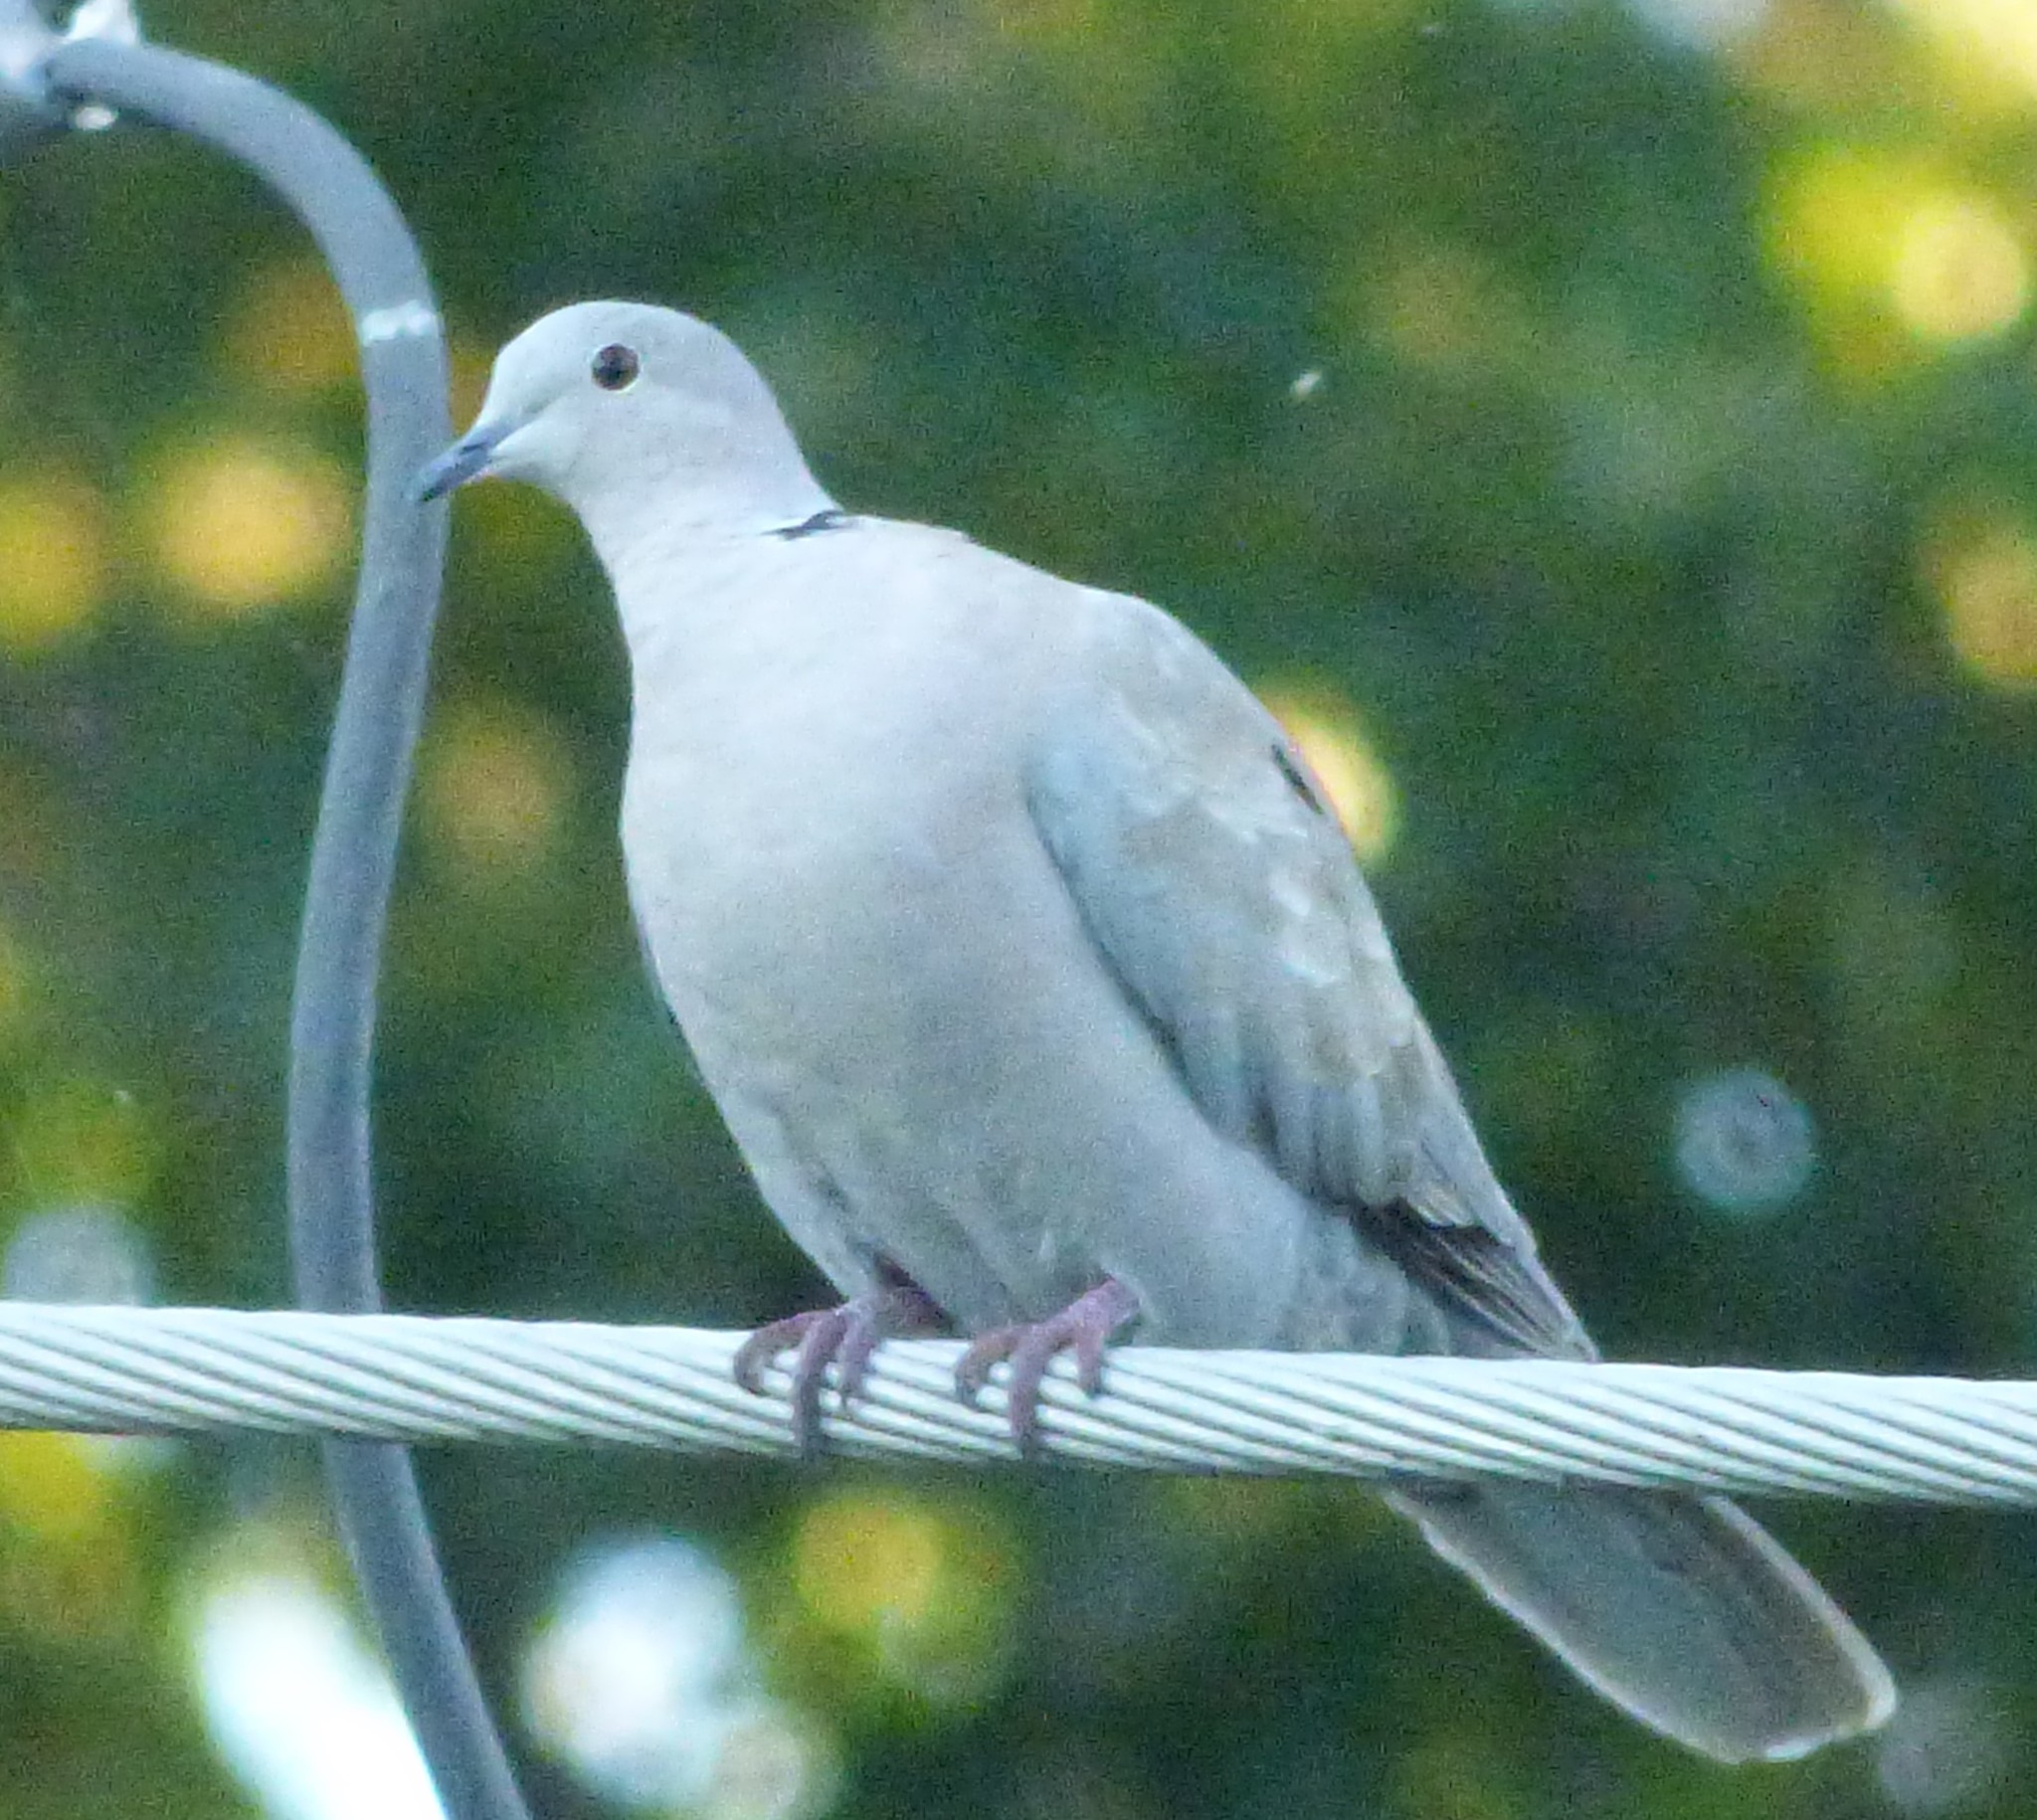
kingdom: Animalia
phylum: Chordata
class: Aves
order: Columbiformes
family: Columbidae
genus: Streptopelia
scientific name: Streptopelia decaocto
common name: Eurasian collared dove
